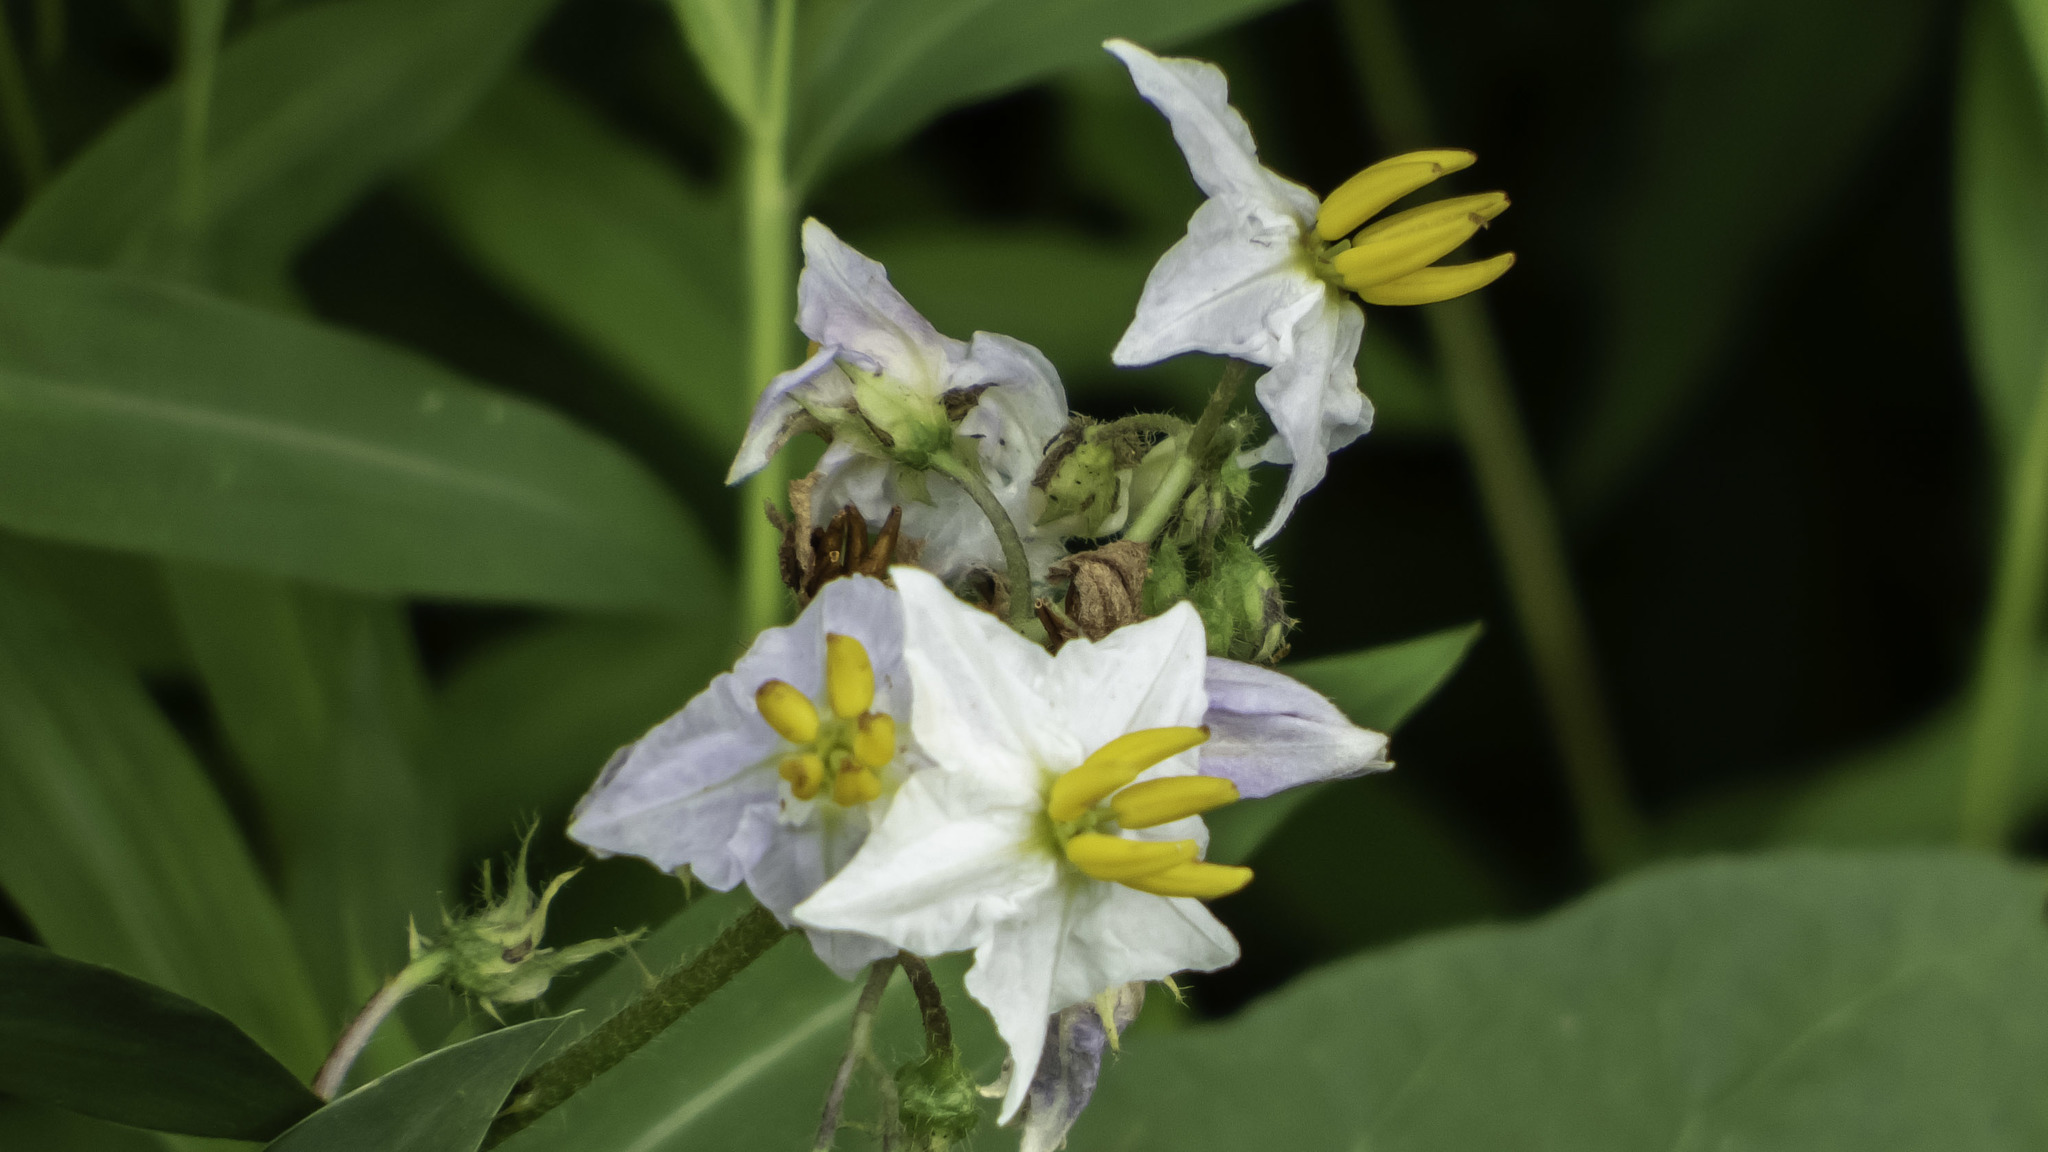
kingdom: Plantae
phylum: Tracheophyta
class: Magnoliopsida
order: Solanales
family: Solanaceae
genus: Solanum
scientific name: Solanum carolinense
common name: Horse-nettle
